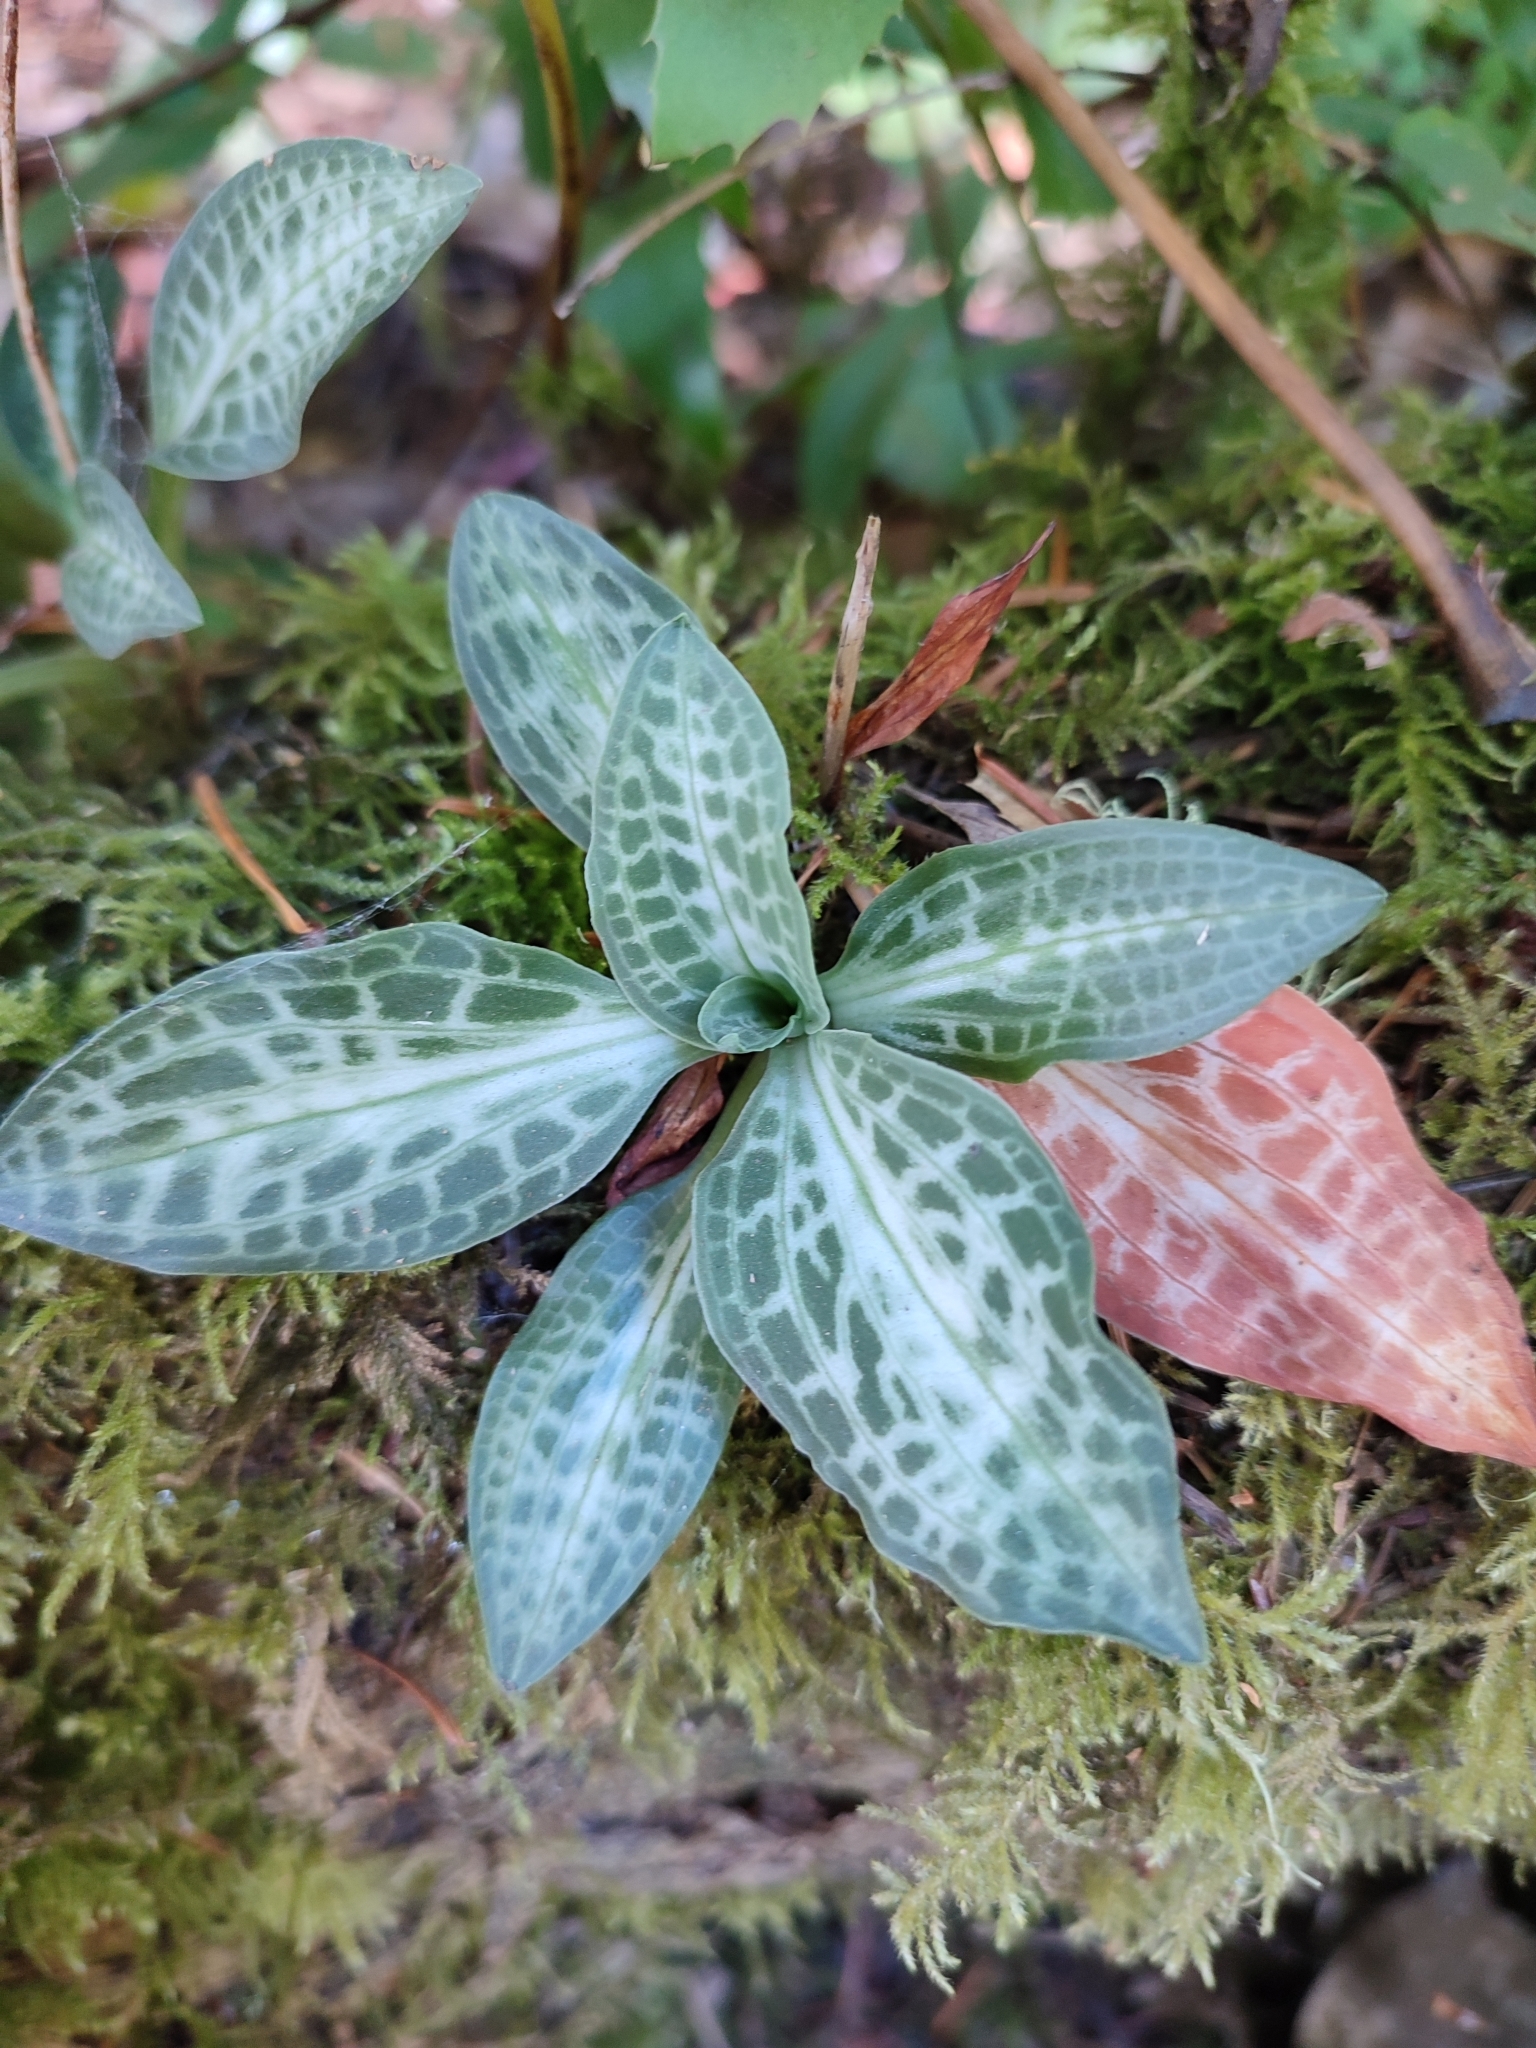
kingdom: Plantae
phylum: Tracheophyta
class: Liliopsida
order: Asparagales
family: Orchidaceae
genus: Goodyera
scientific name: Goodyera oblongifolia
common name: Giant rattlesnake-plantain
